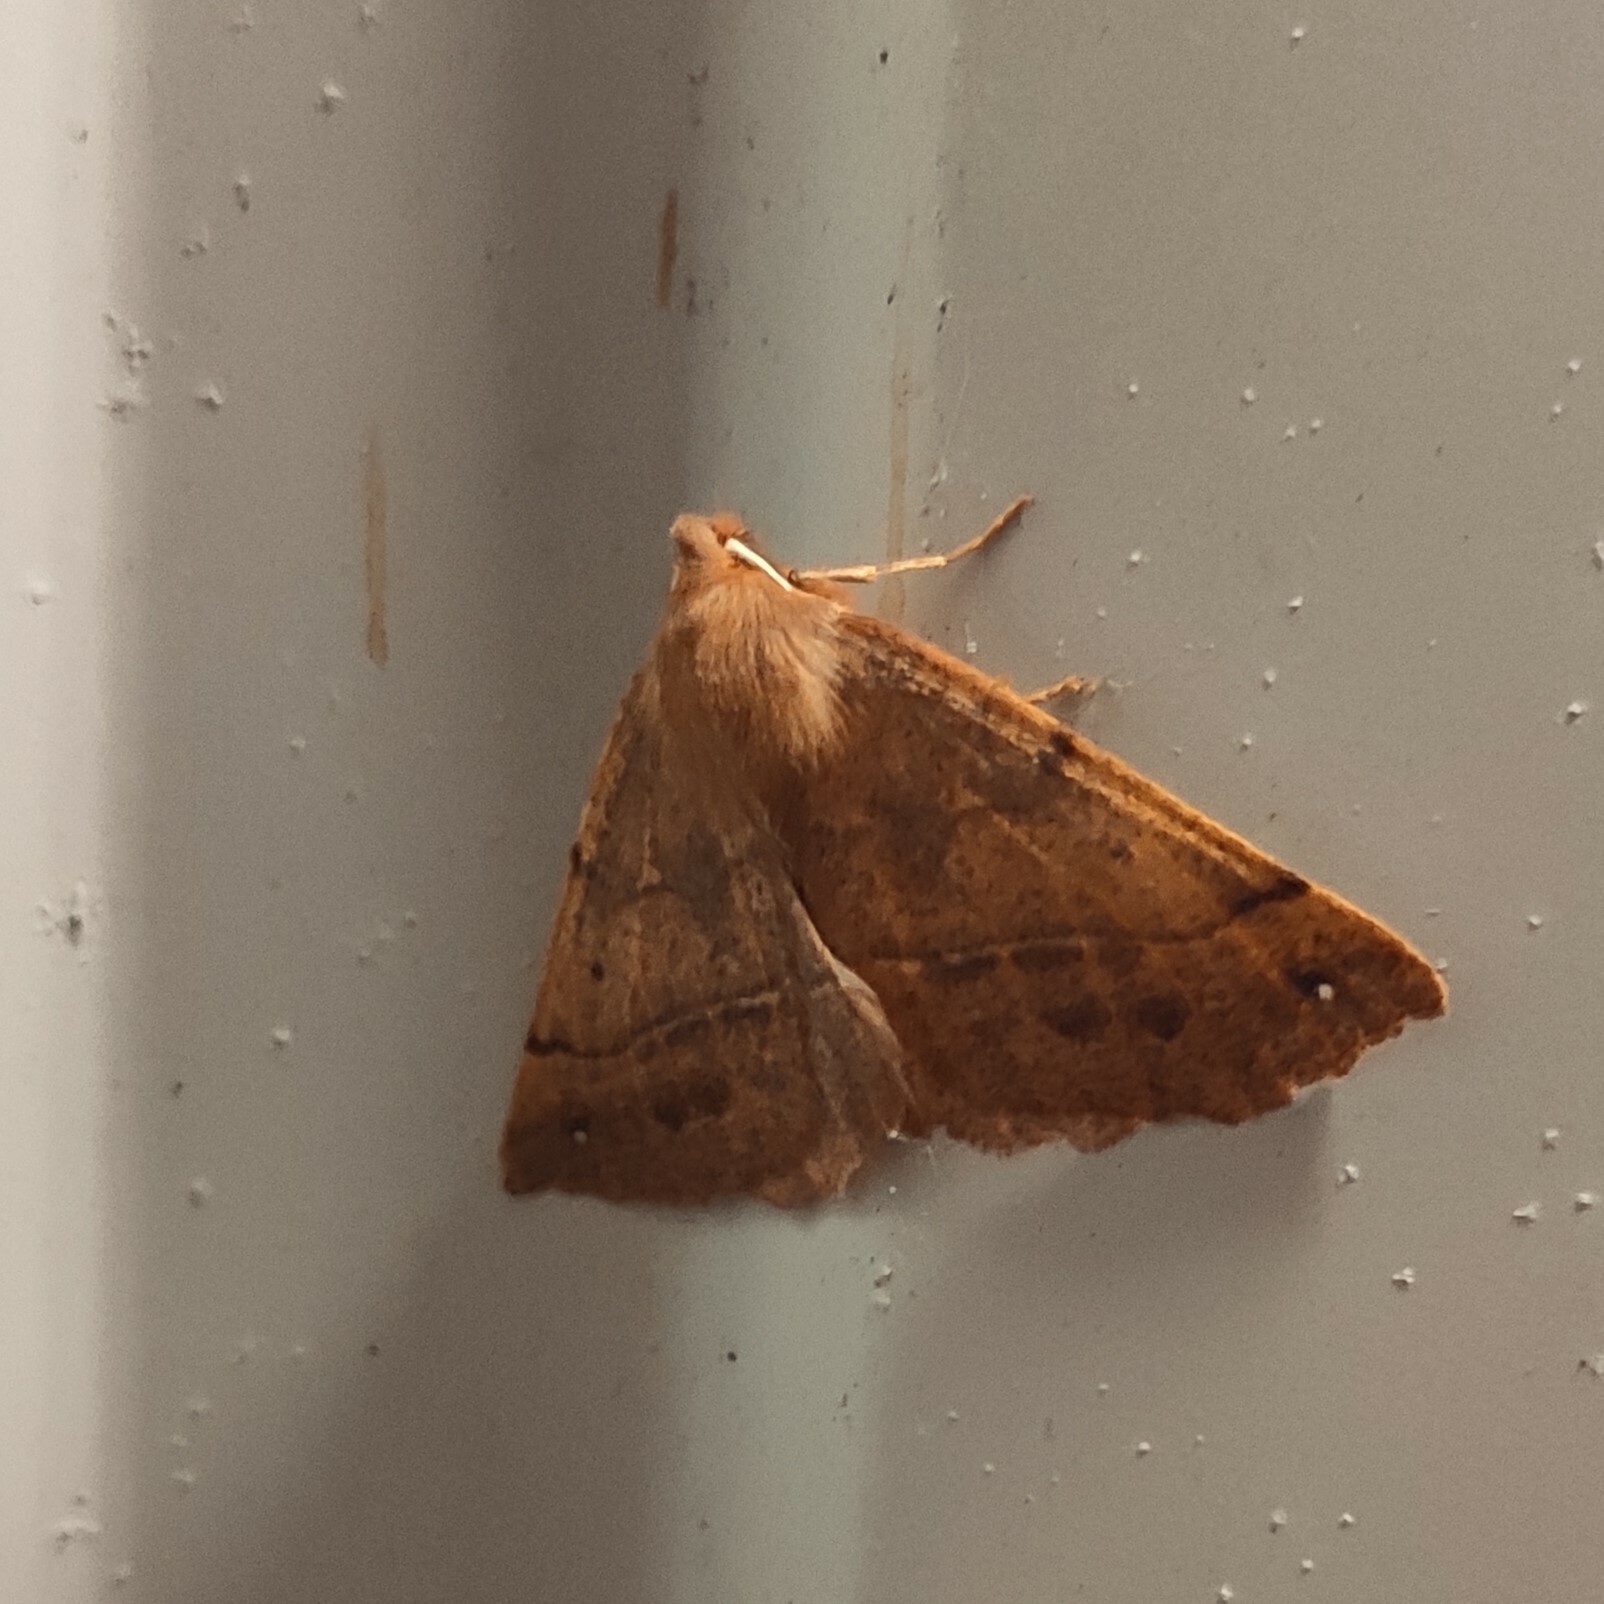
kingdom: Animalia
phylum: Arthropoda
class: Insecta
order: Lepidoptera
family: Geometridae
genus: Colotois
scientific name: Colotois pennaria
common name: Feathered thorn
